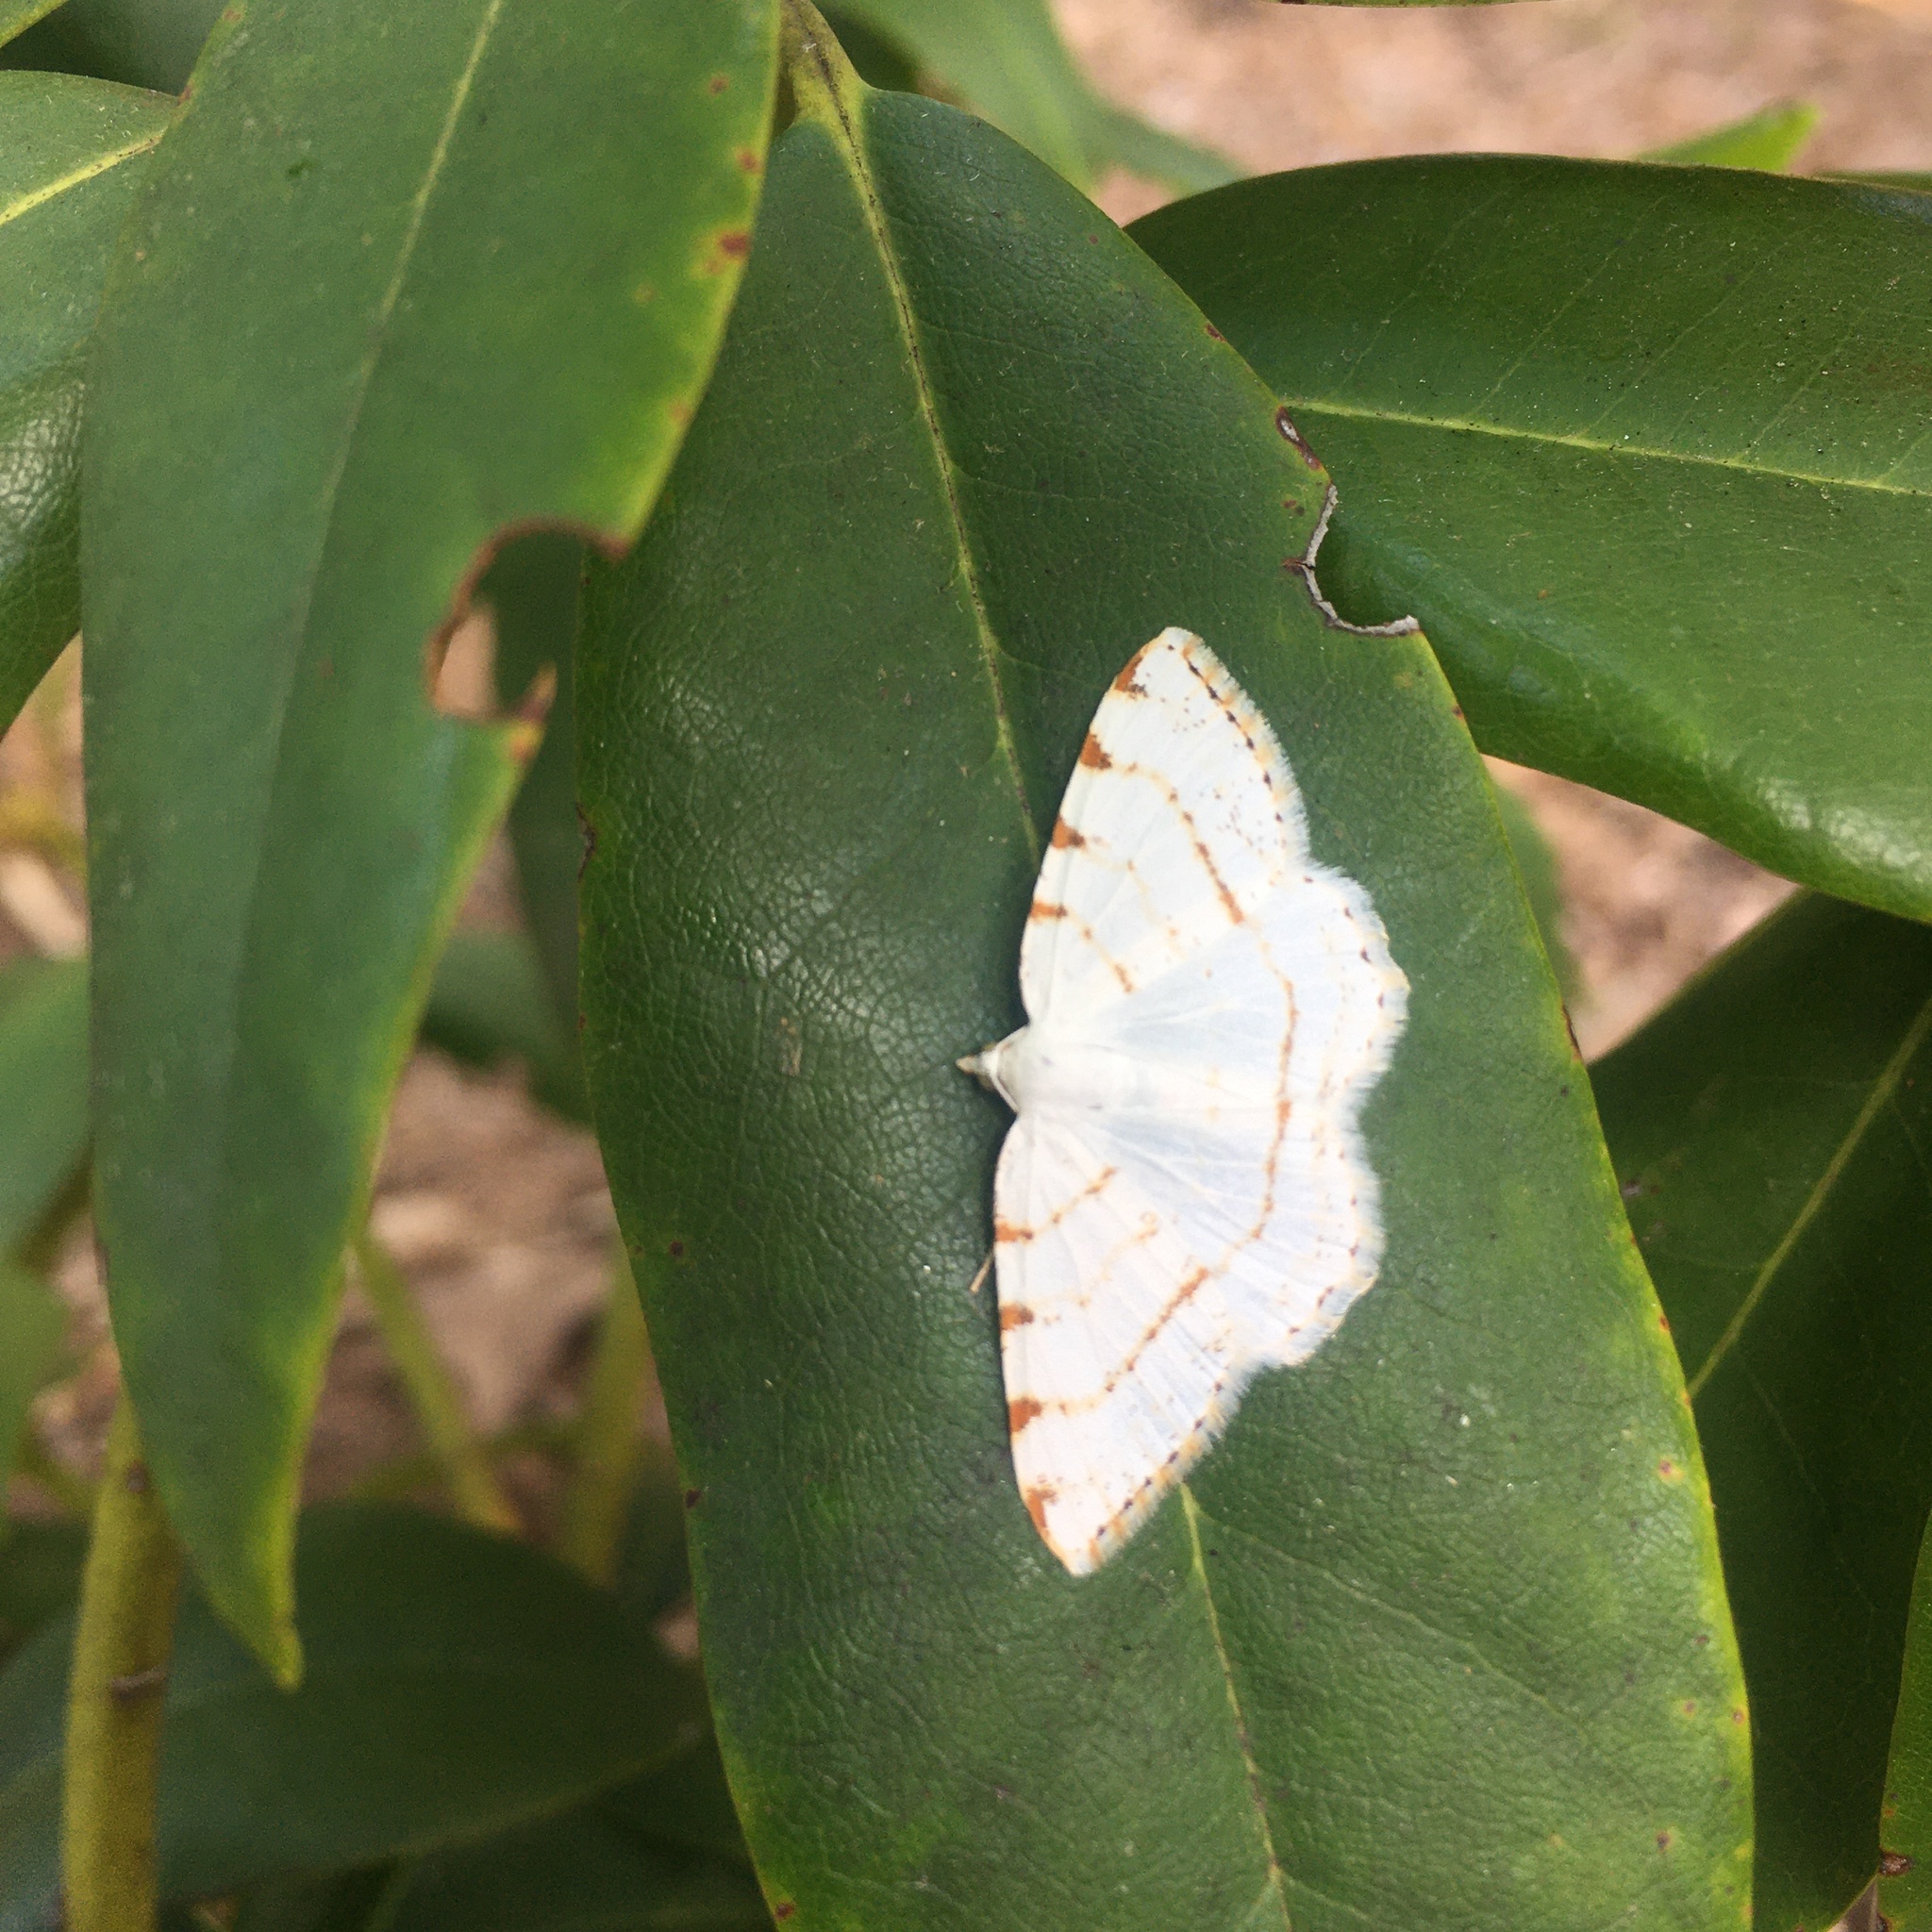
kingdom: Animalia
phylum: Arthropoda
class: Insecta
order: Lepidoptera
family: Geometridae
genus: Macaria
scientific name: Macaria pustularia
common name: Lesser maple spanworm moth
